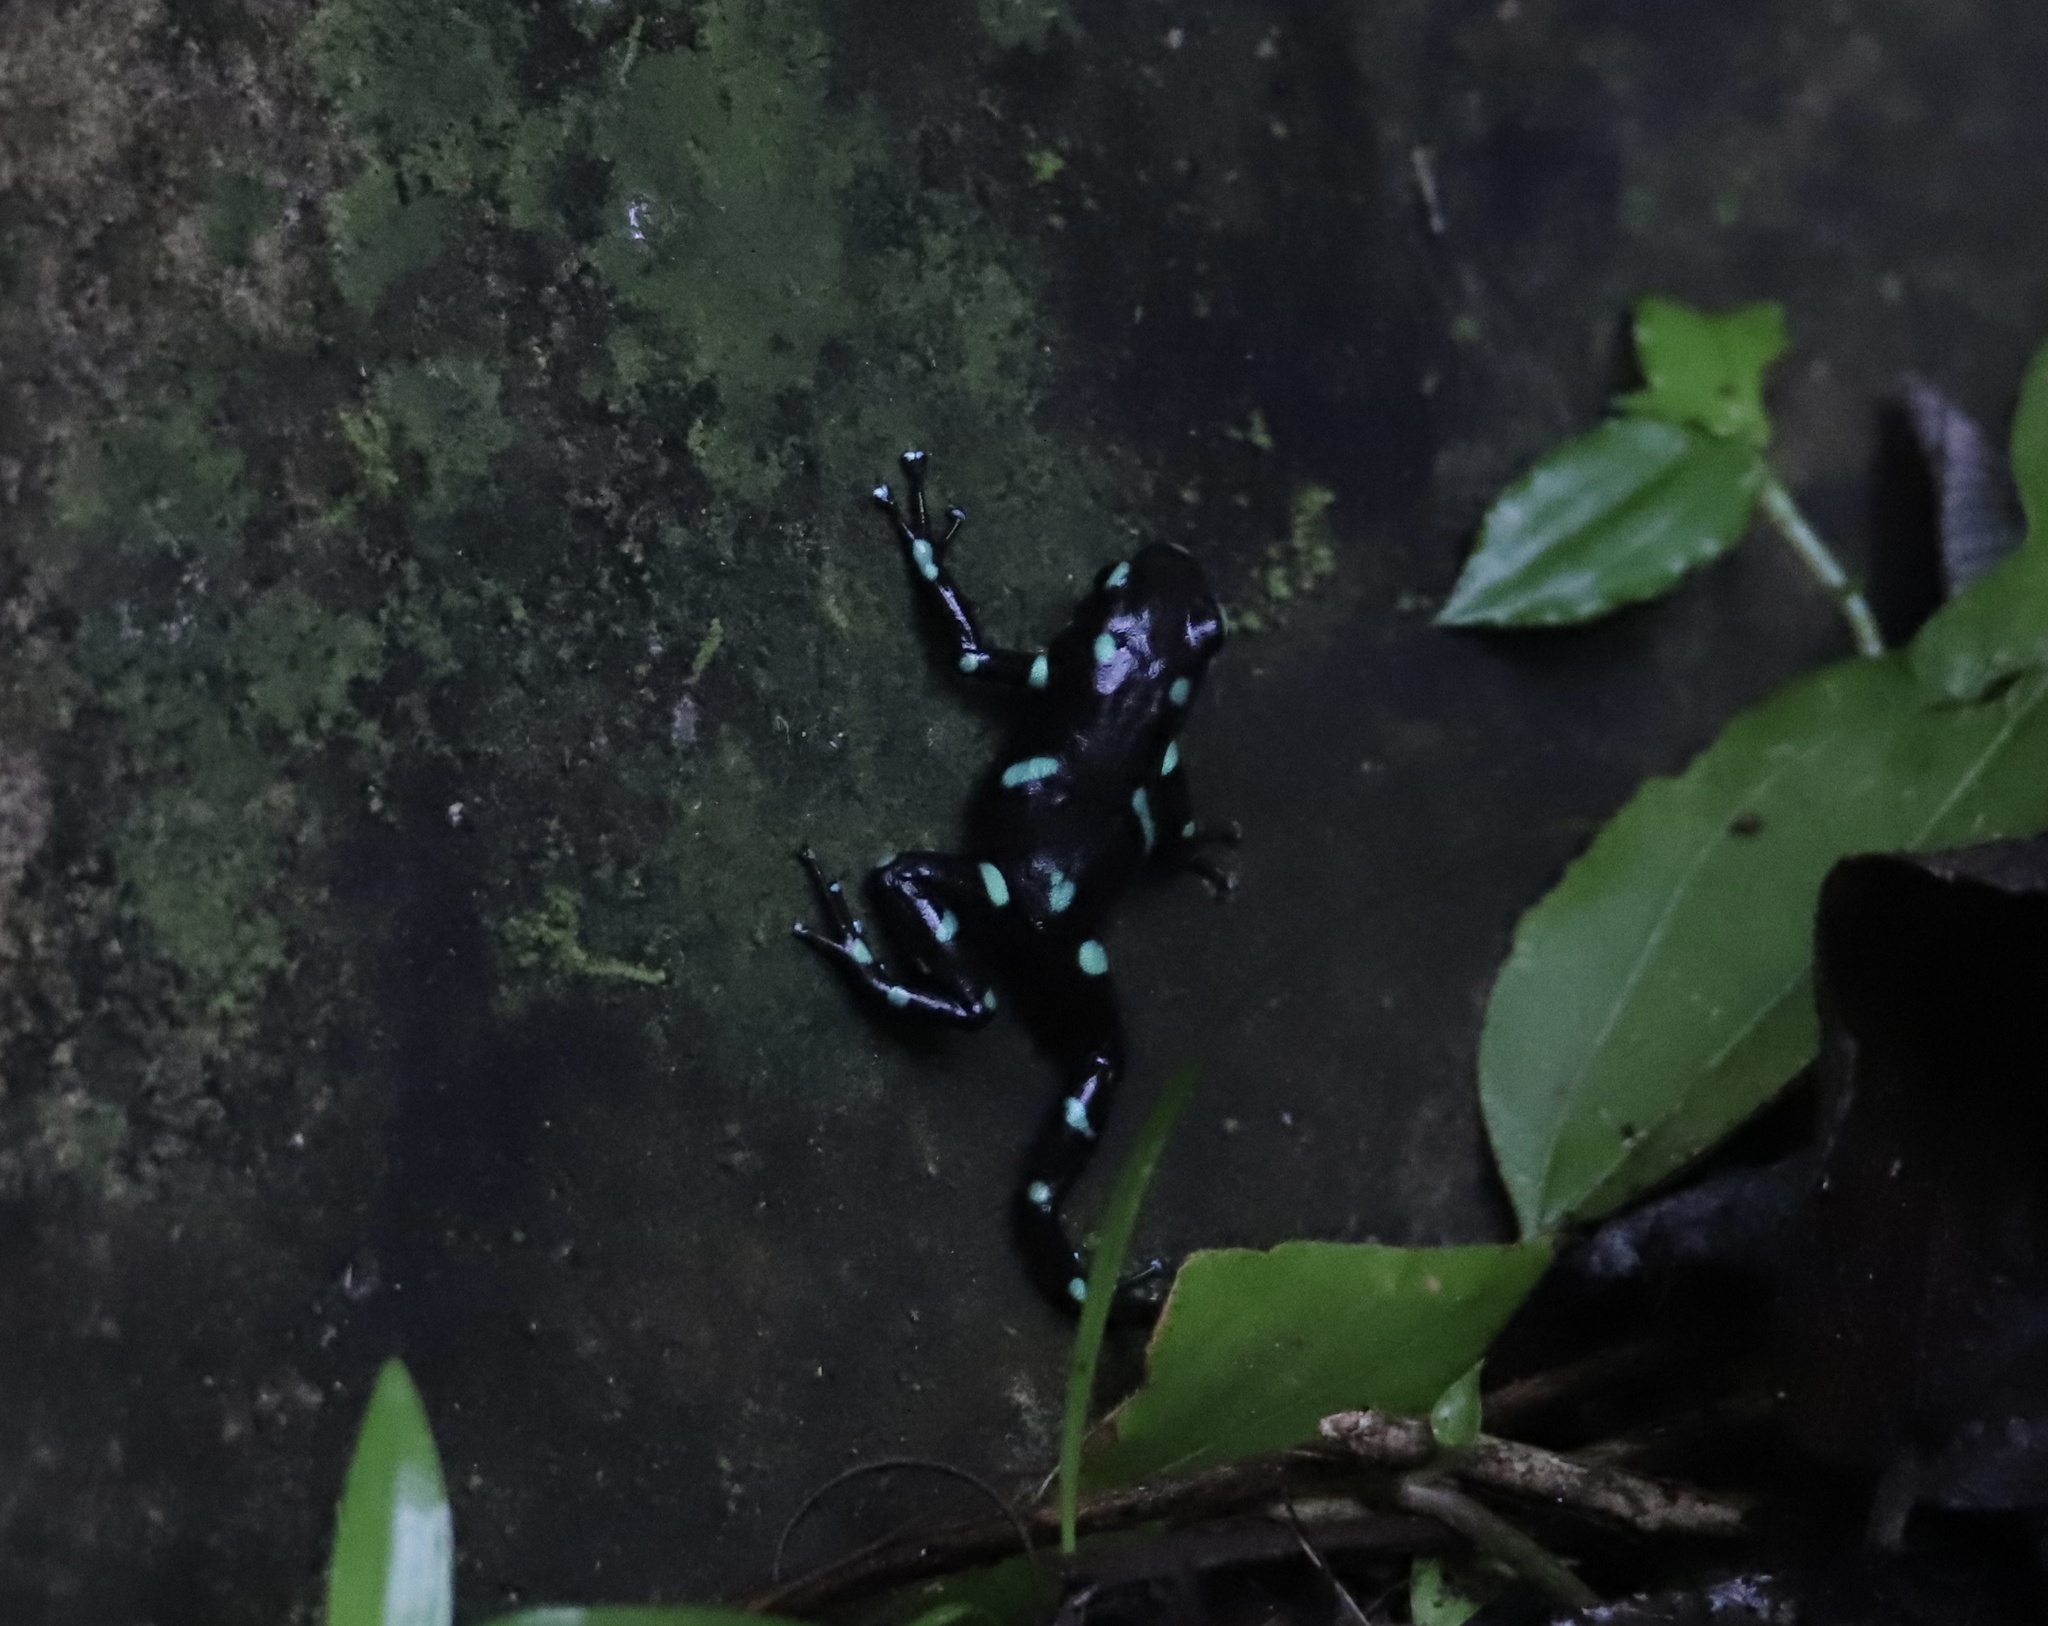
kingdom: Animalia
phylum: Chordata
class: Amphibia
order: Anura
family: Dendrobatidae
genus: Dendrobates
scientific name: Dendrobates auratus
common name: Green and black poison dart frog
